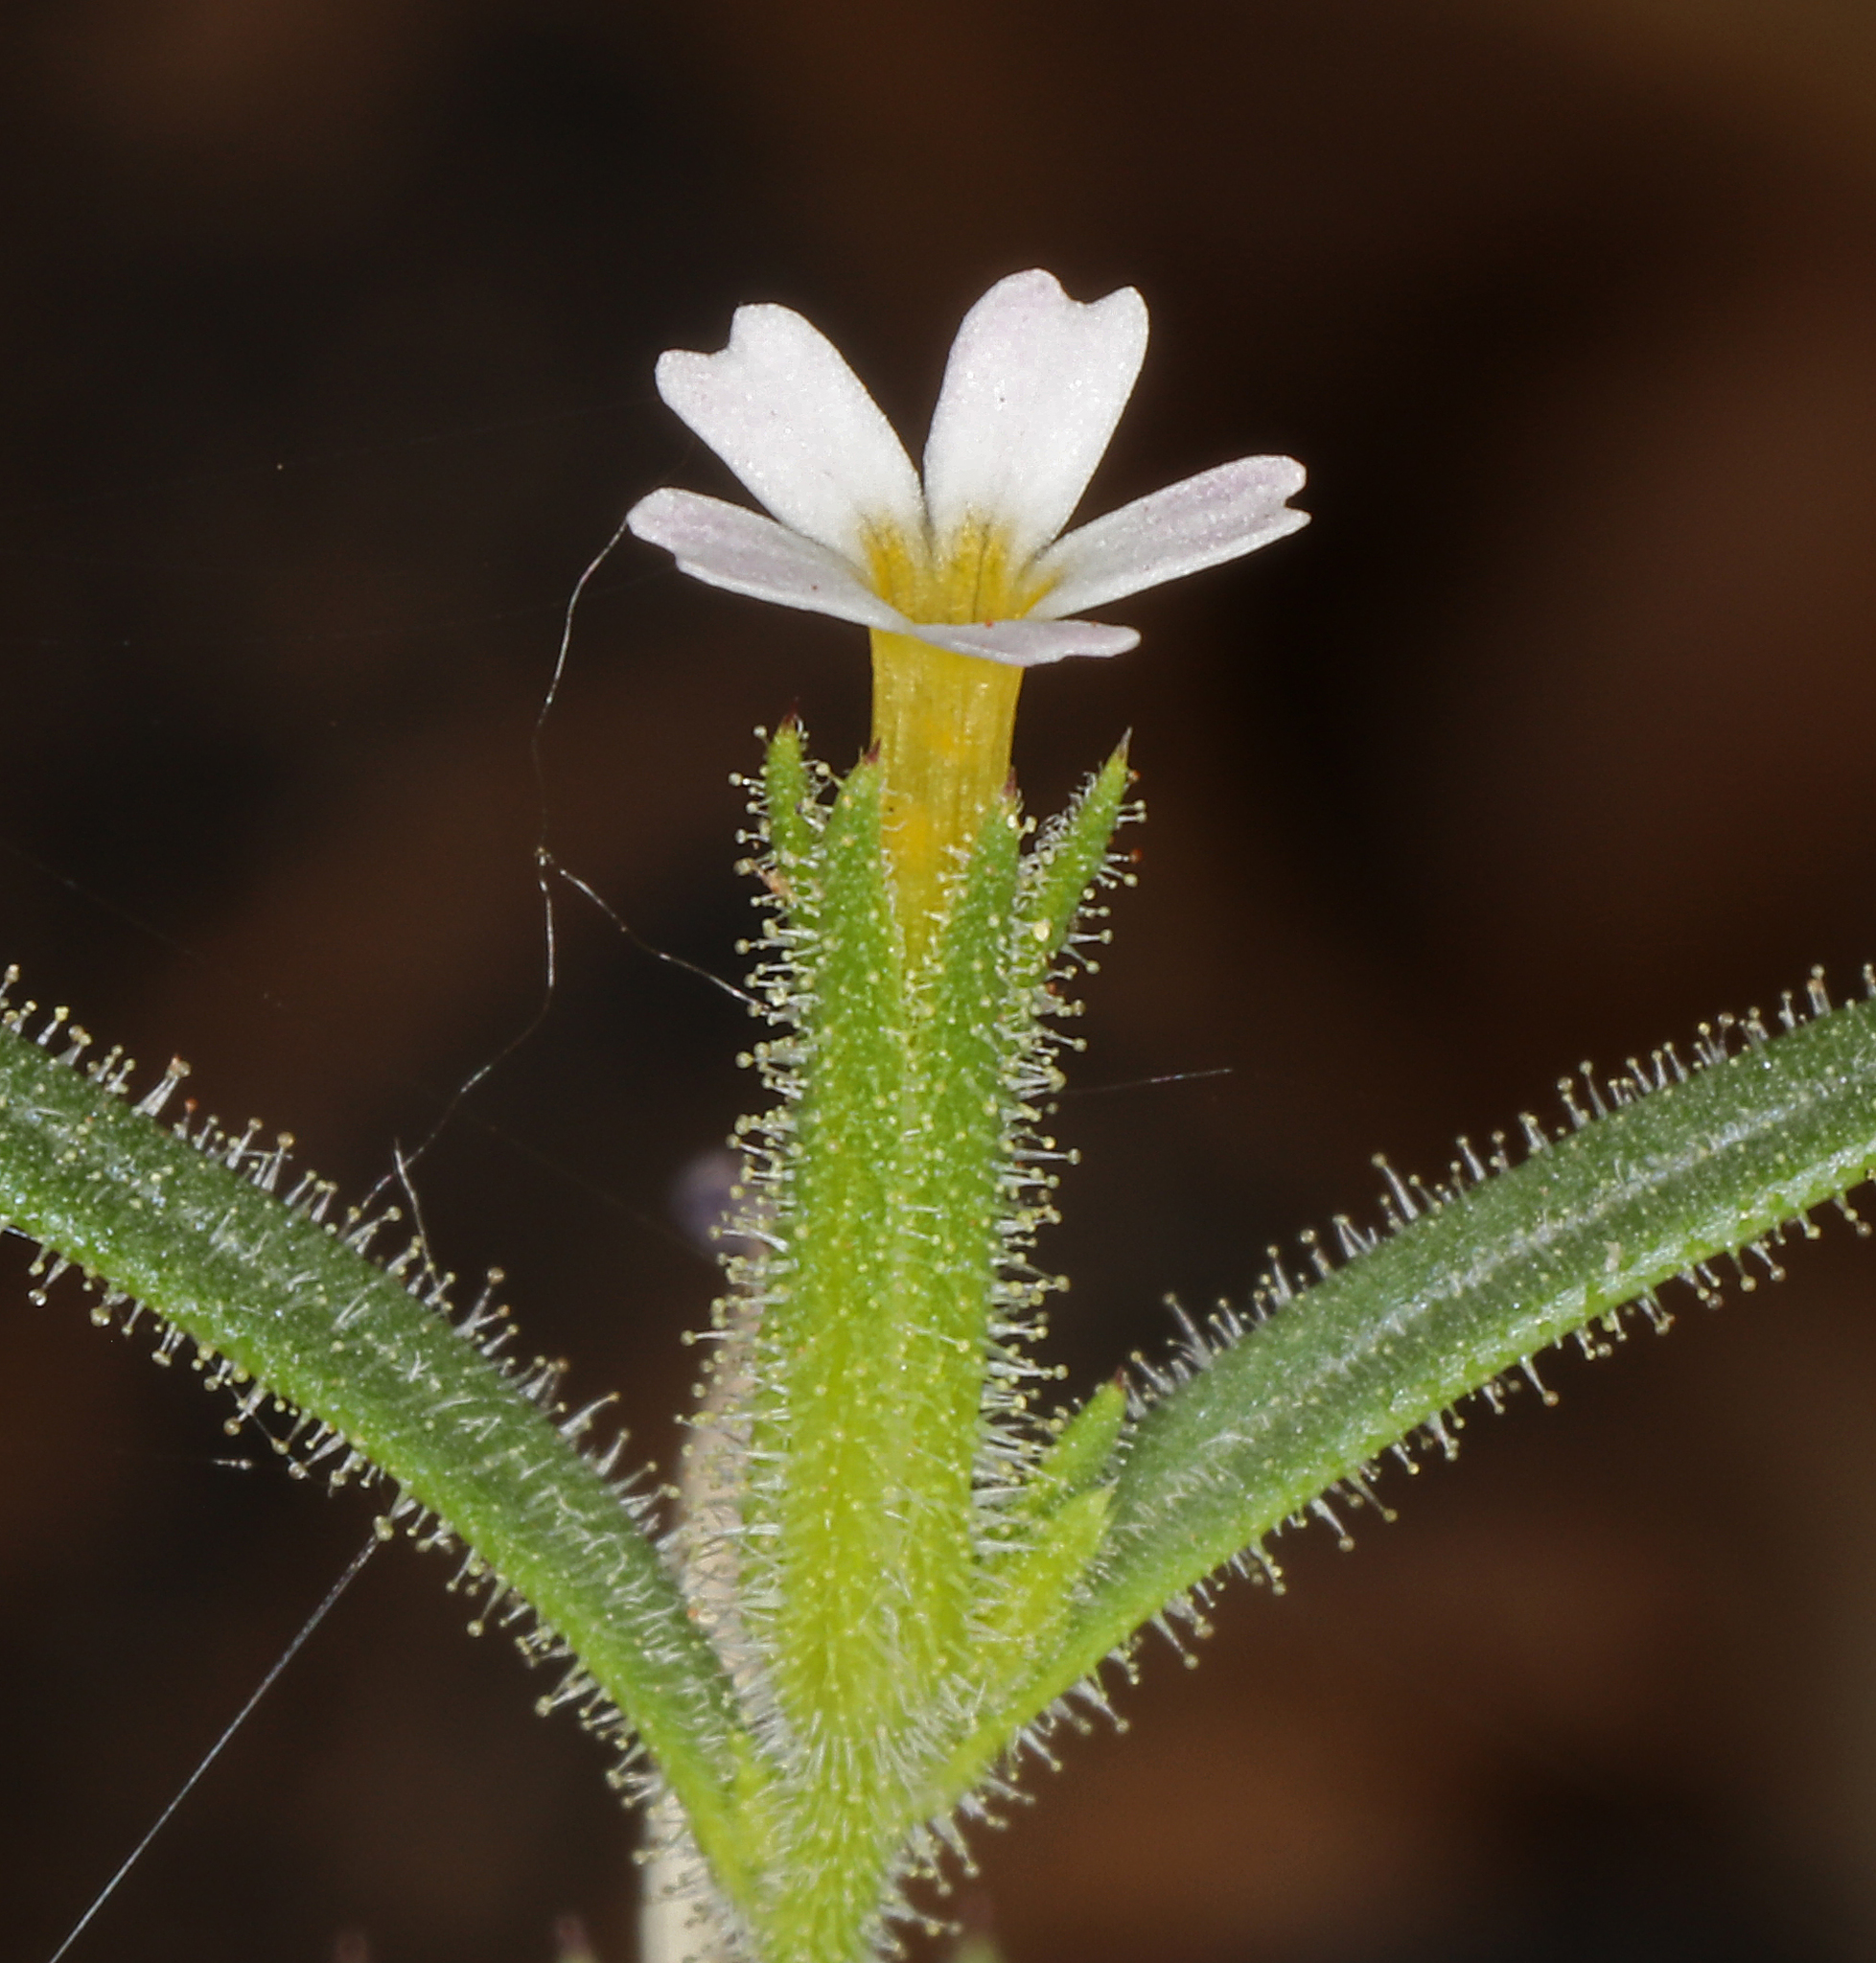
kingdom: Plantae
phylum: Tracheophyta
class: Magnoliopsida
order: Ericales
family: Polemoniaceae
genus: Phlox
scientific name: Phlox gracilis
